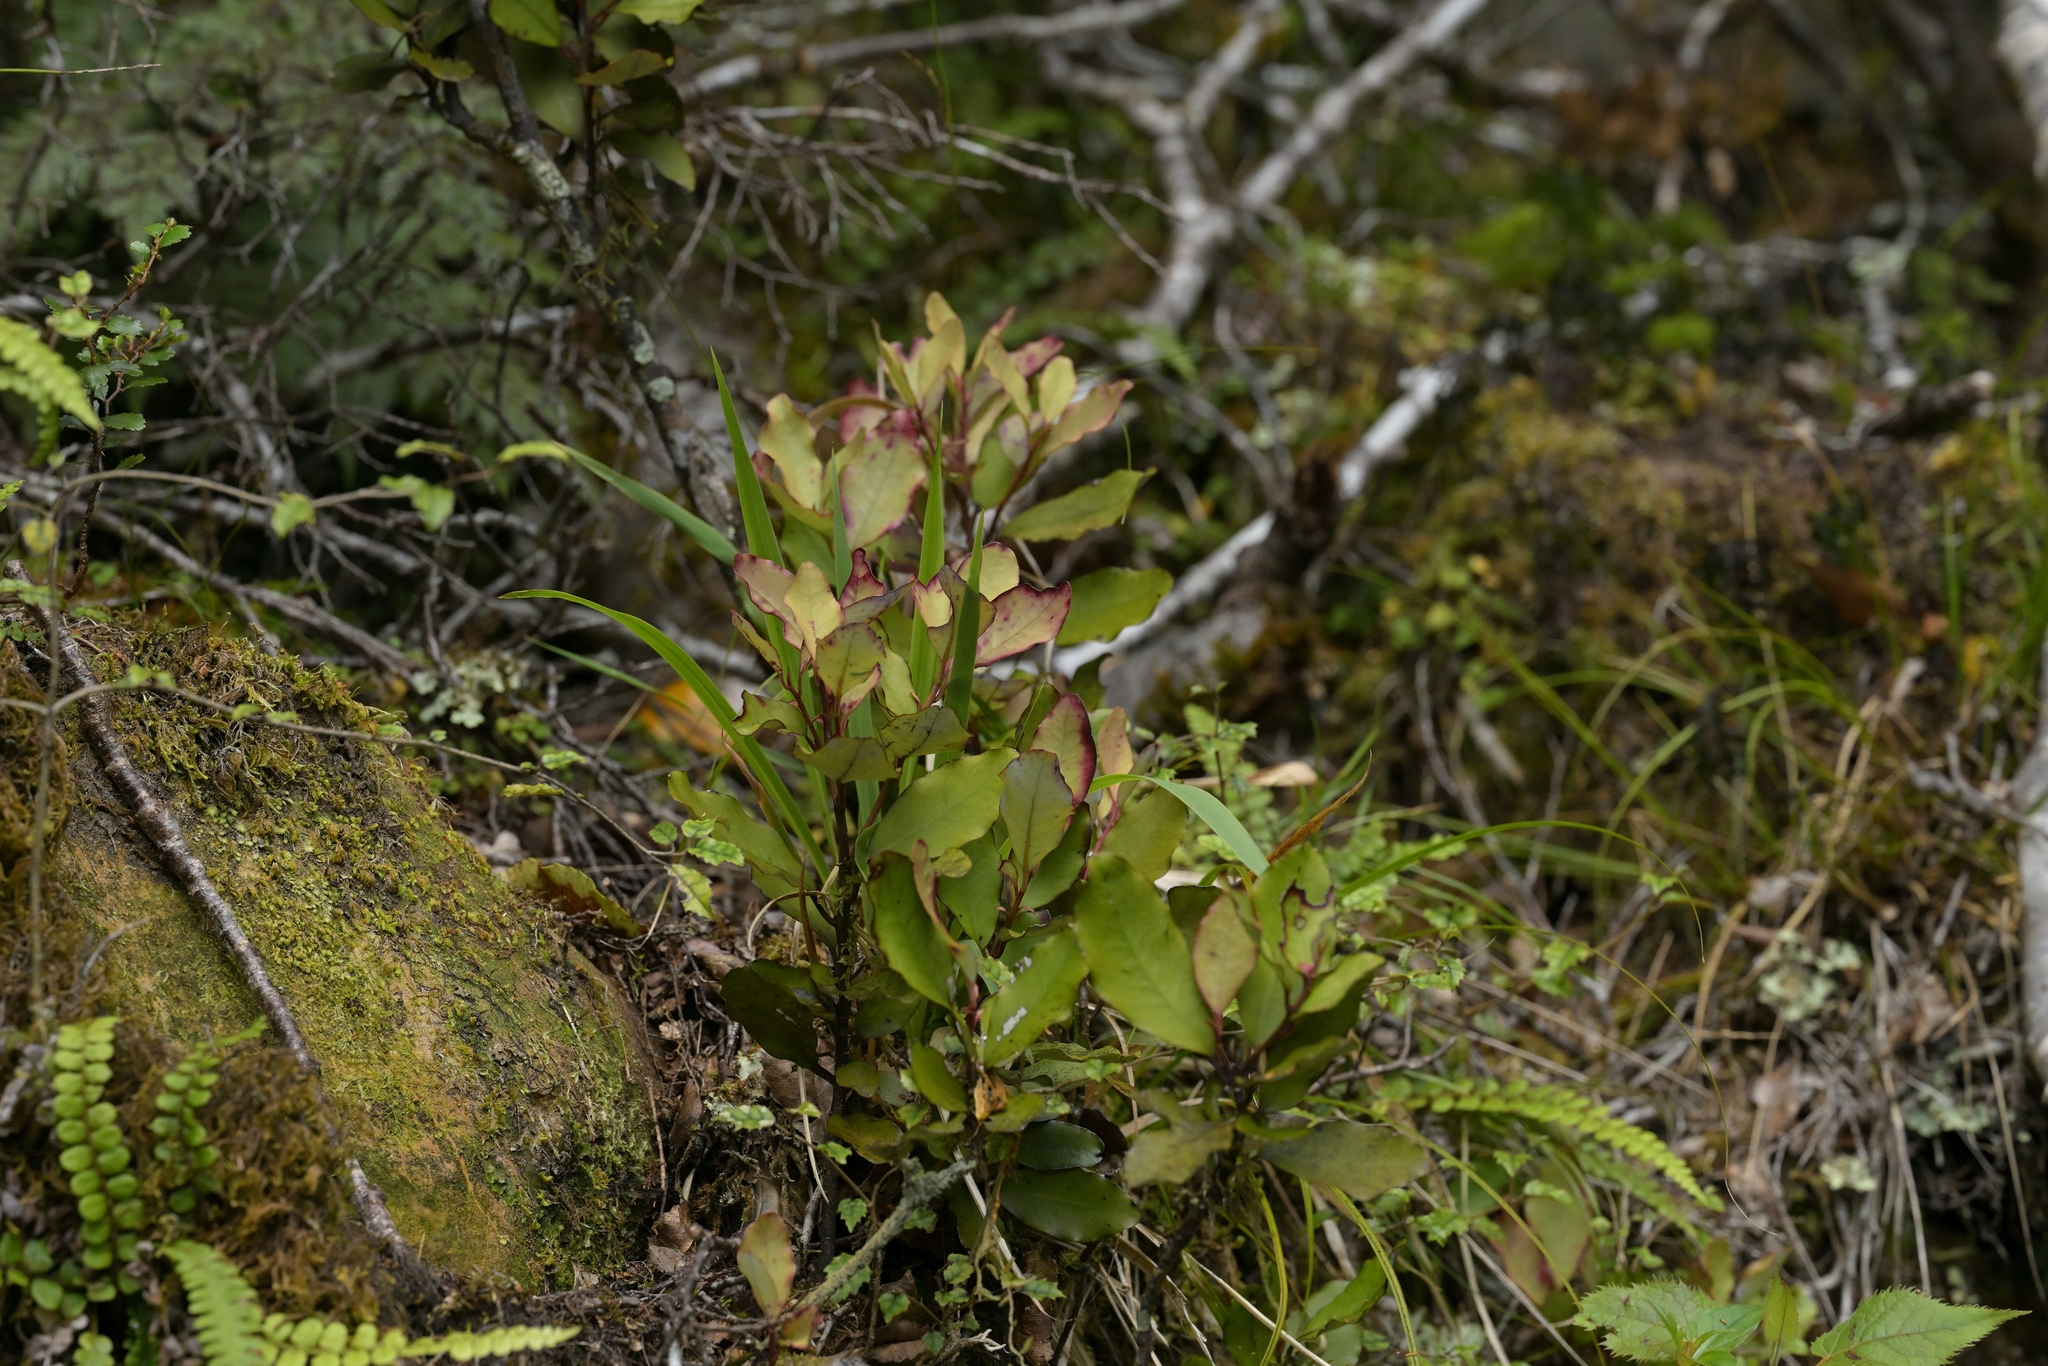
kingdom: Plantae
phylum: Tracheophyta
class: Magnoliopsida
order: Canellales
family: Winteraceae
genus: Pseudowintera
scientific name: Pseudowintera colorata
